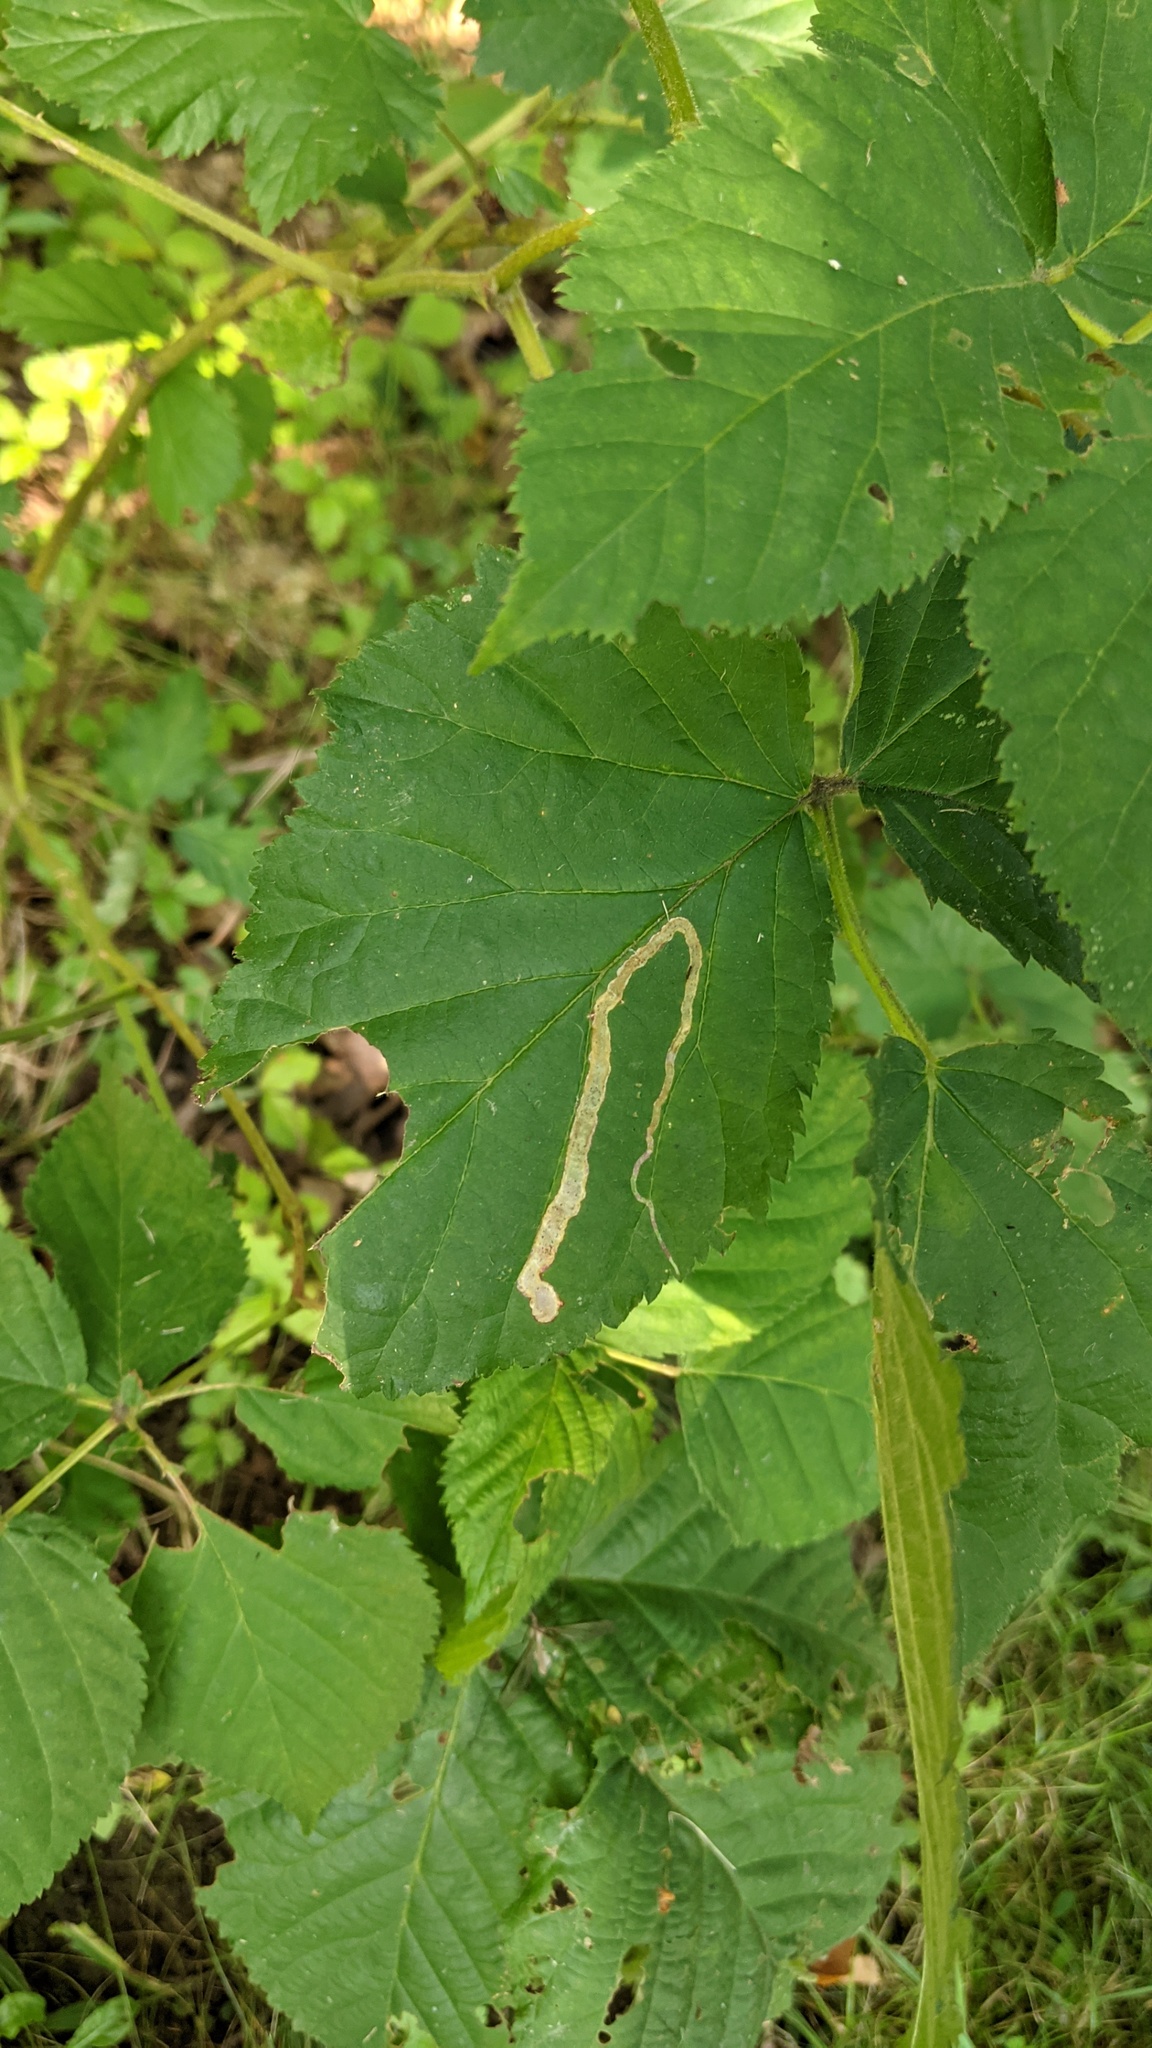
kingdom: Animalia
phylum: Arthropoda
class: Insecta
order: Diptera
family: Agromyzidae
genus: Agromyza
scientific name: Agromyza vockerothi
